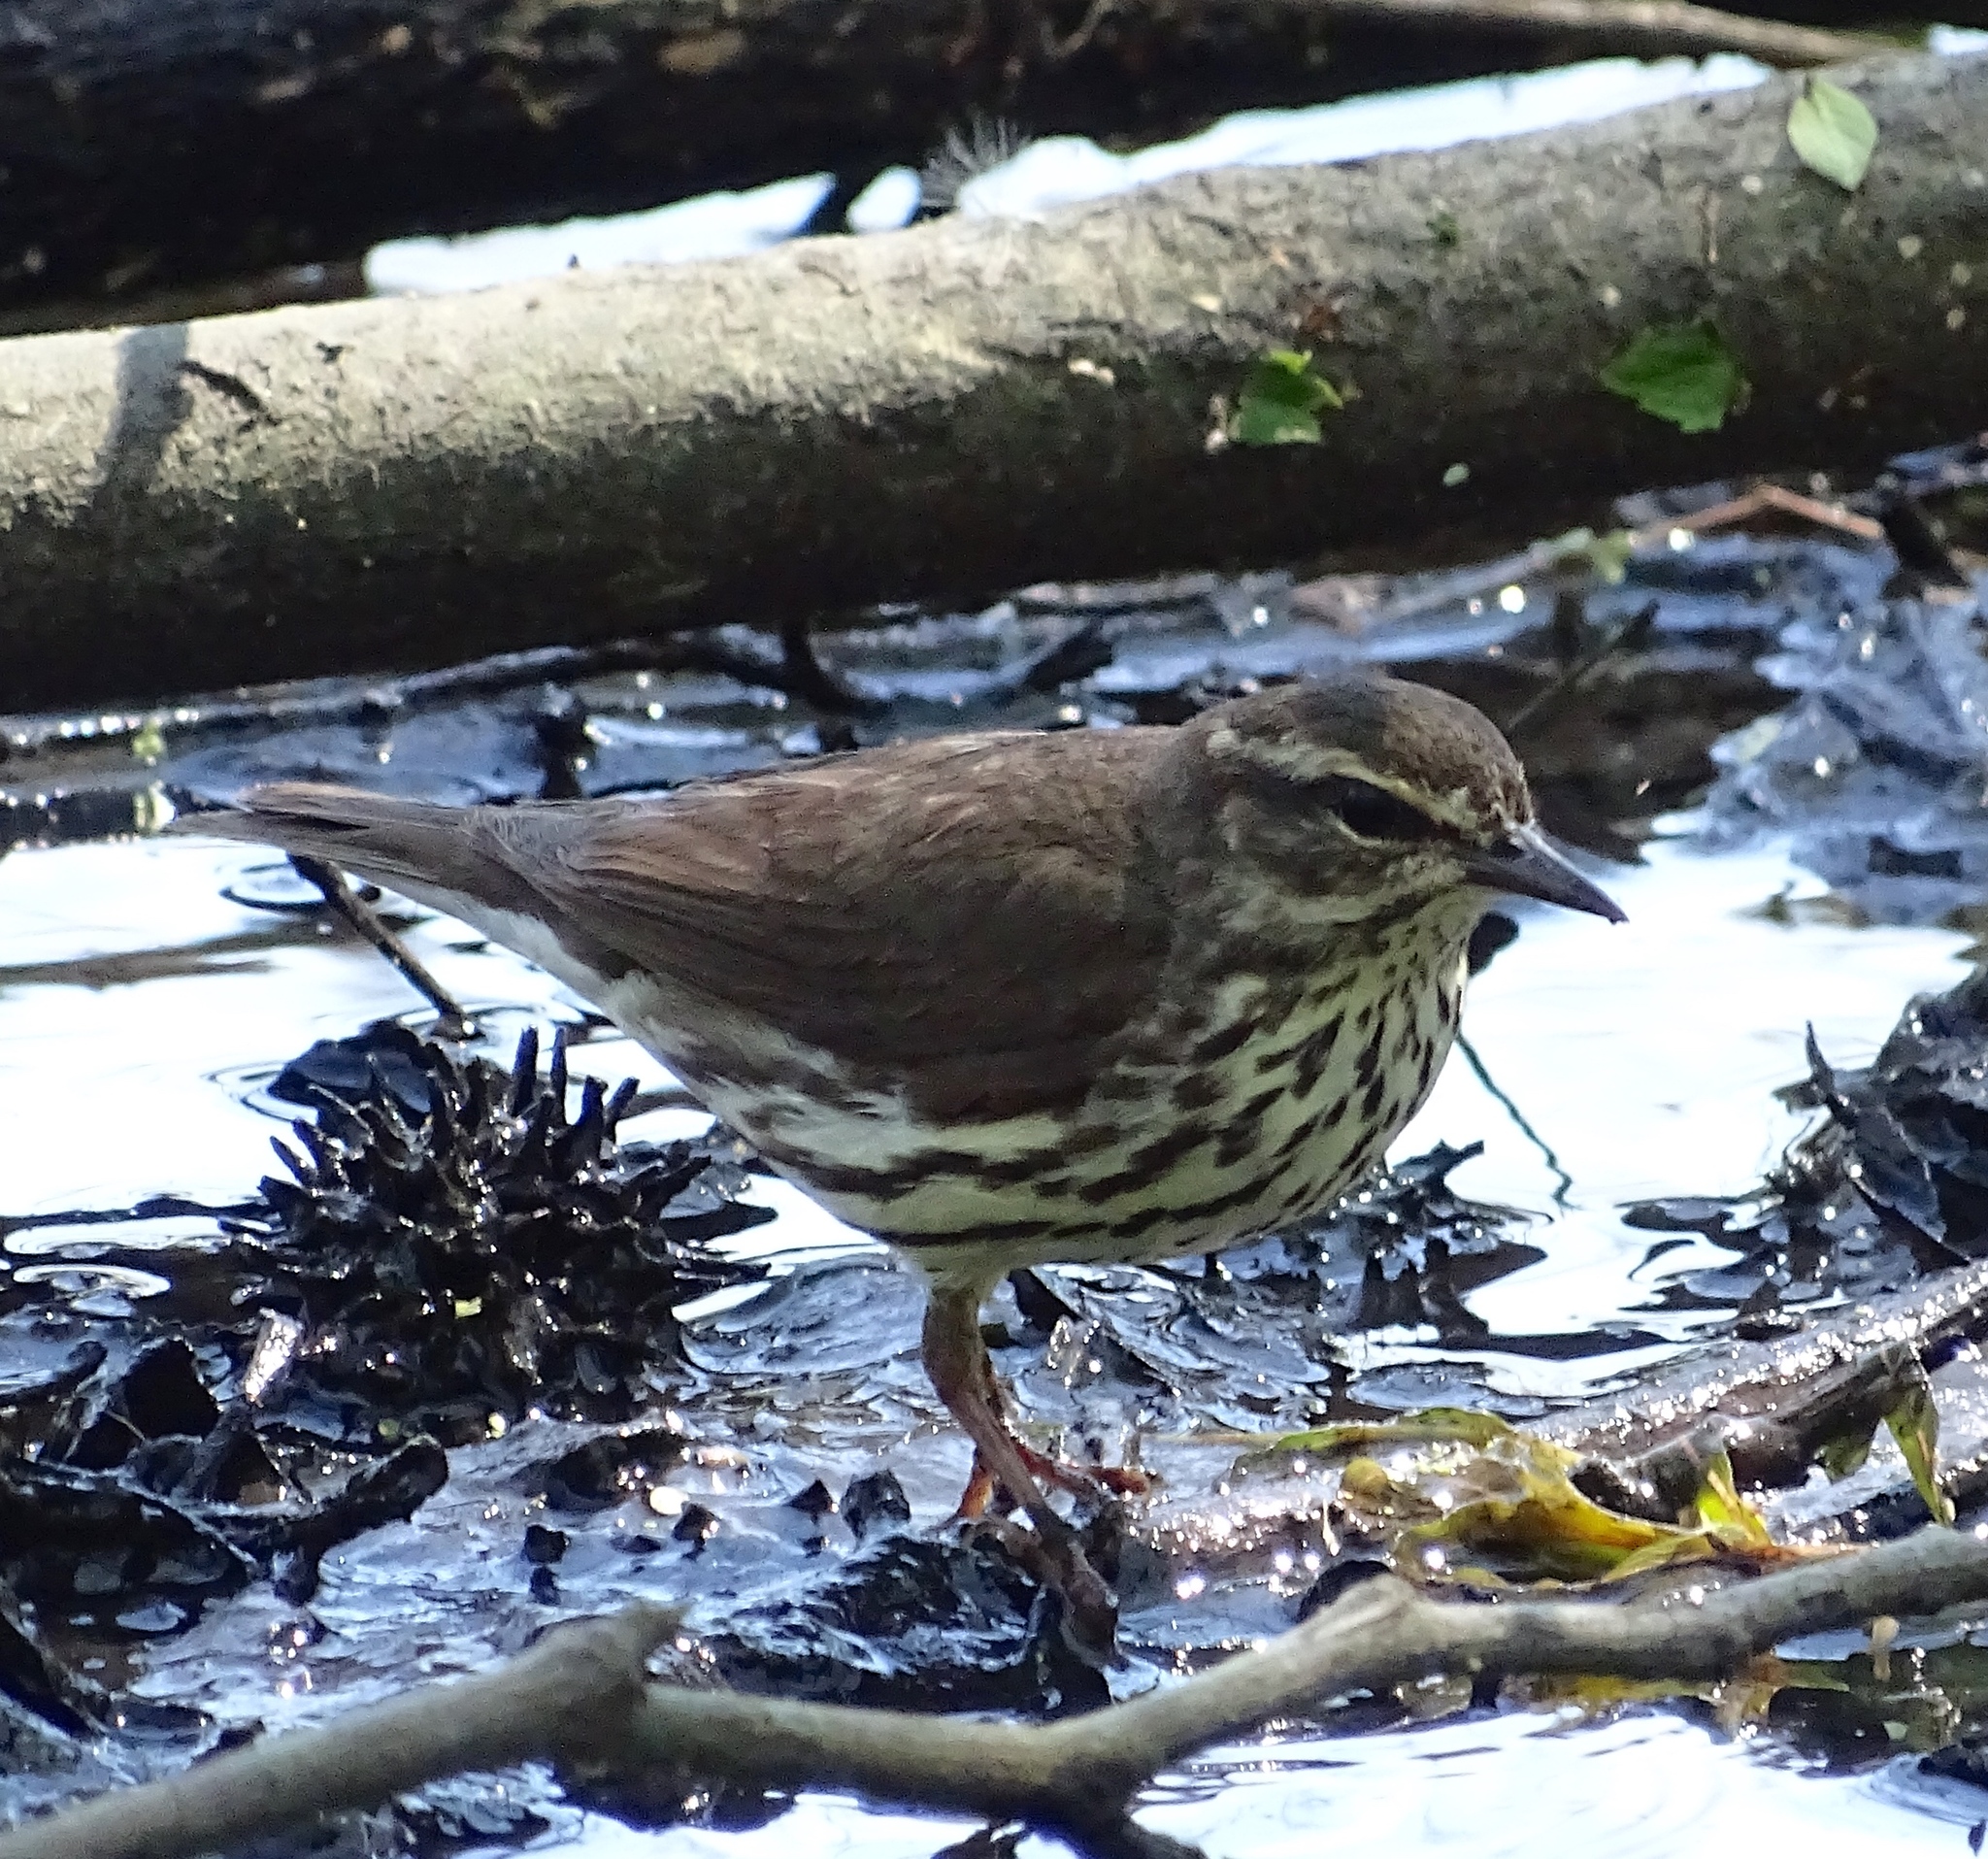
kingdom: Animalia
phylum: Chordata
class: Aves
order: Passeriformes
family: Parulidae
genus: Parkesia
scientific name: Parkesia noveboracensis
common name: Northern waterthrush
